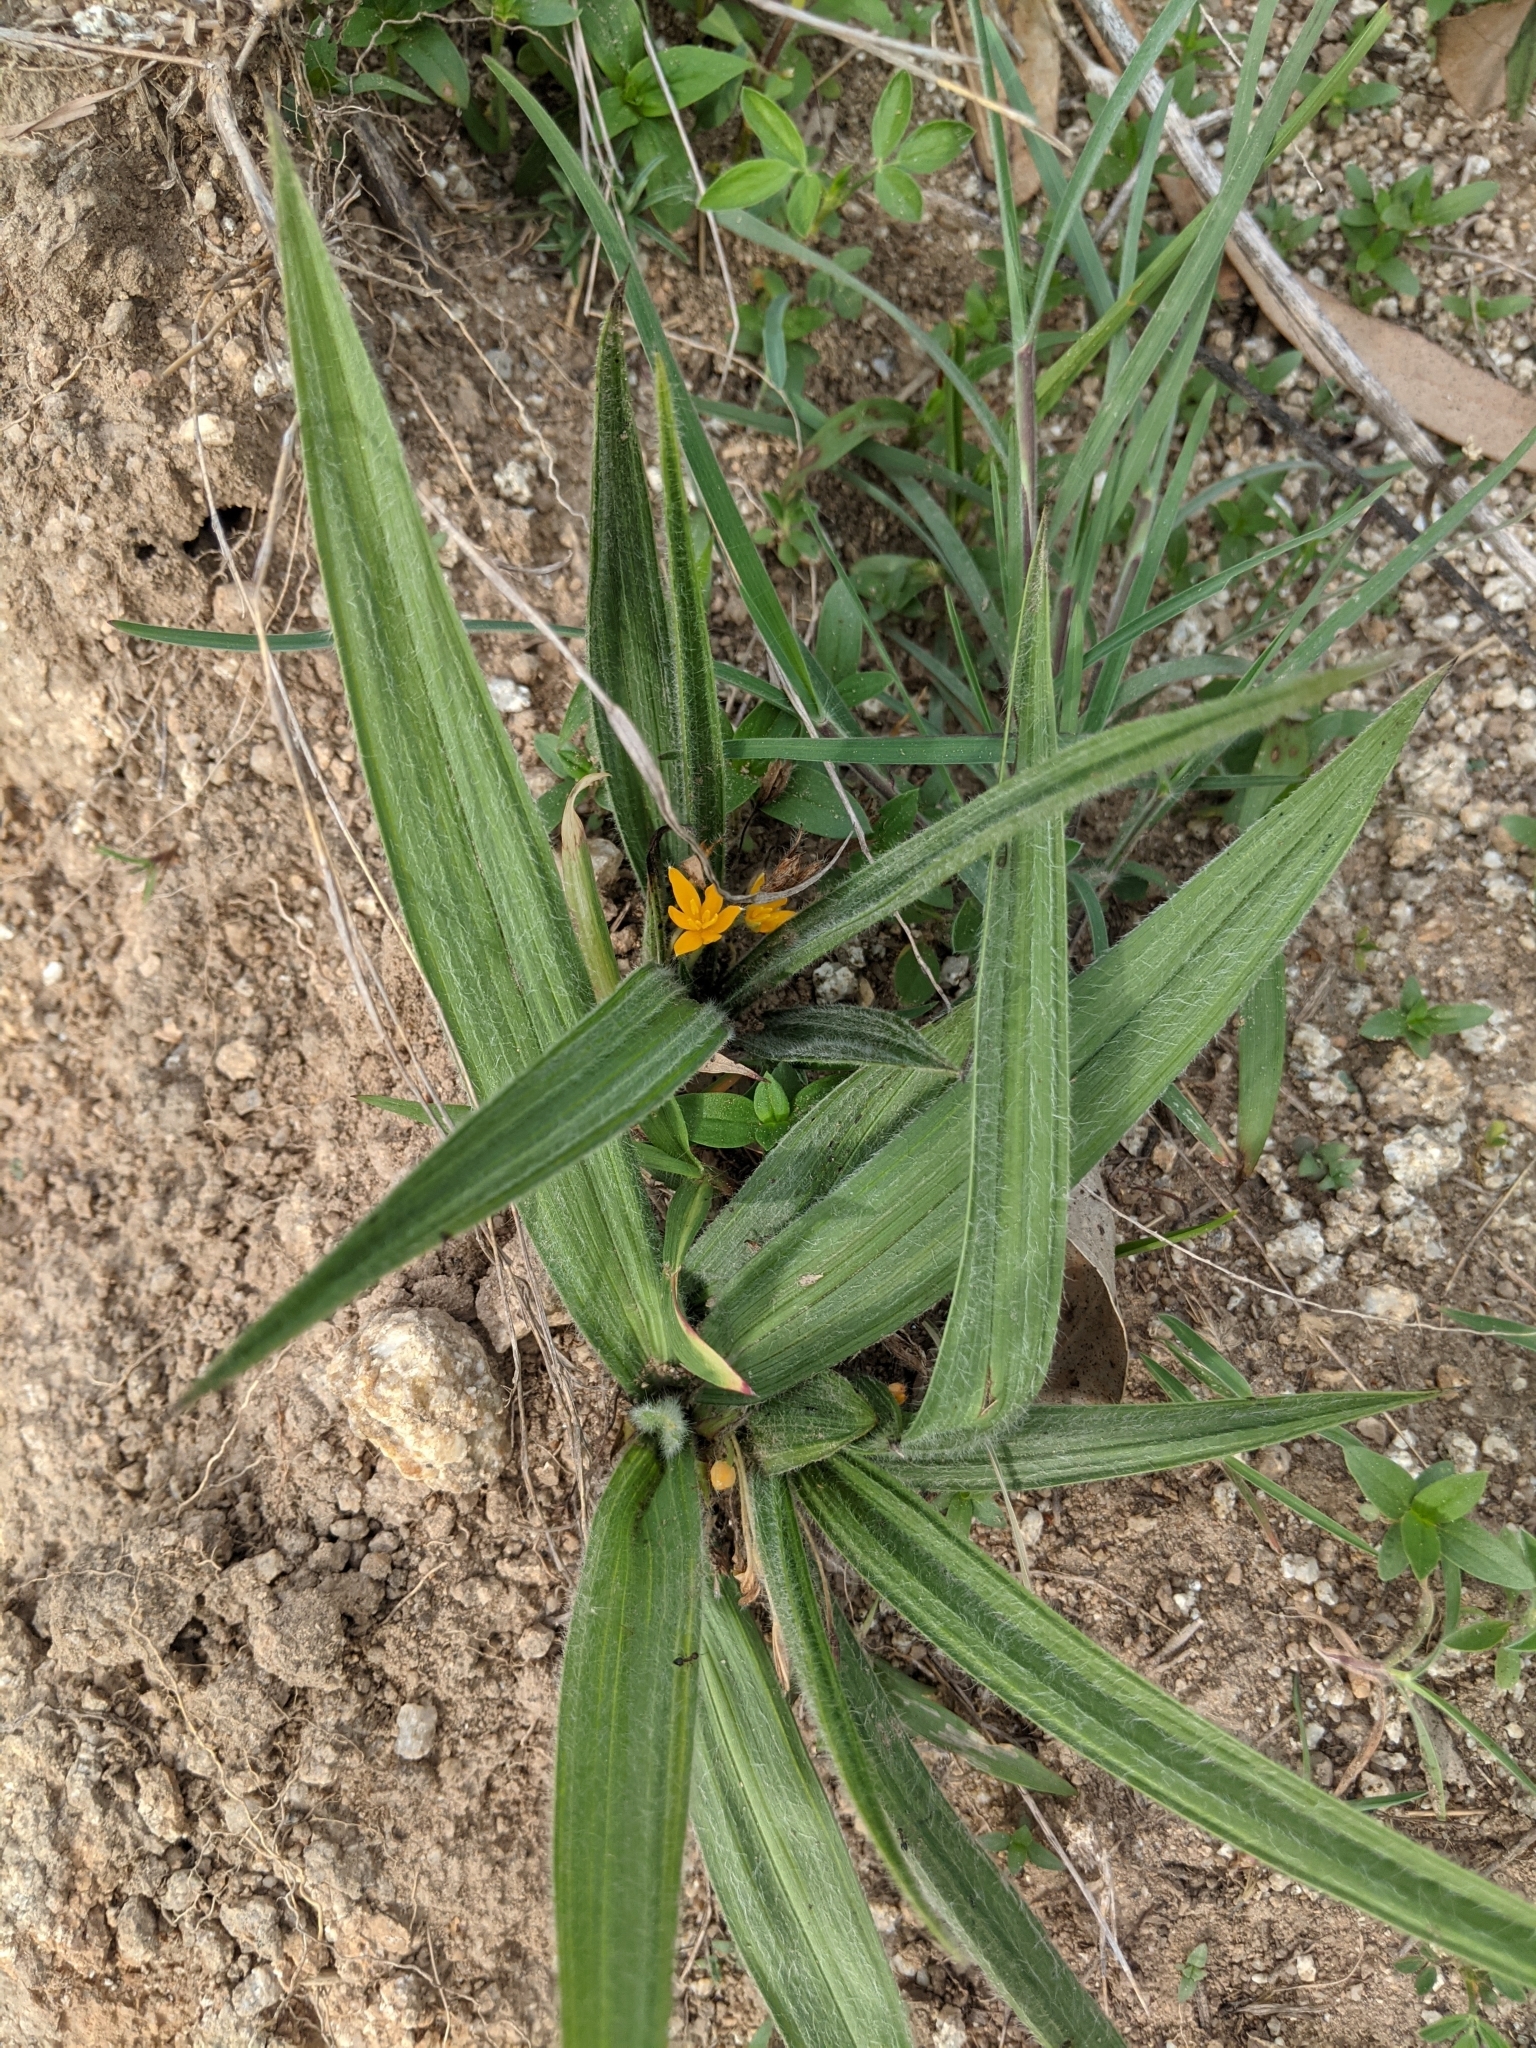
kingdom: Plantae
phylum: Tracheophyta
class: Liliopsida
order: Asparagales
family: Hypoxidaceae
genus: Curculigo
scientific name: Curculigo orchioides
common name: Golden eye-grass
